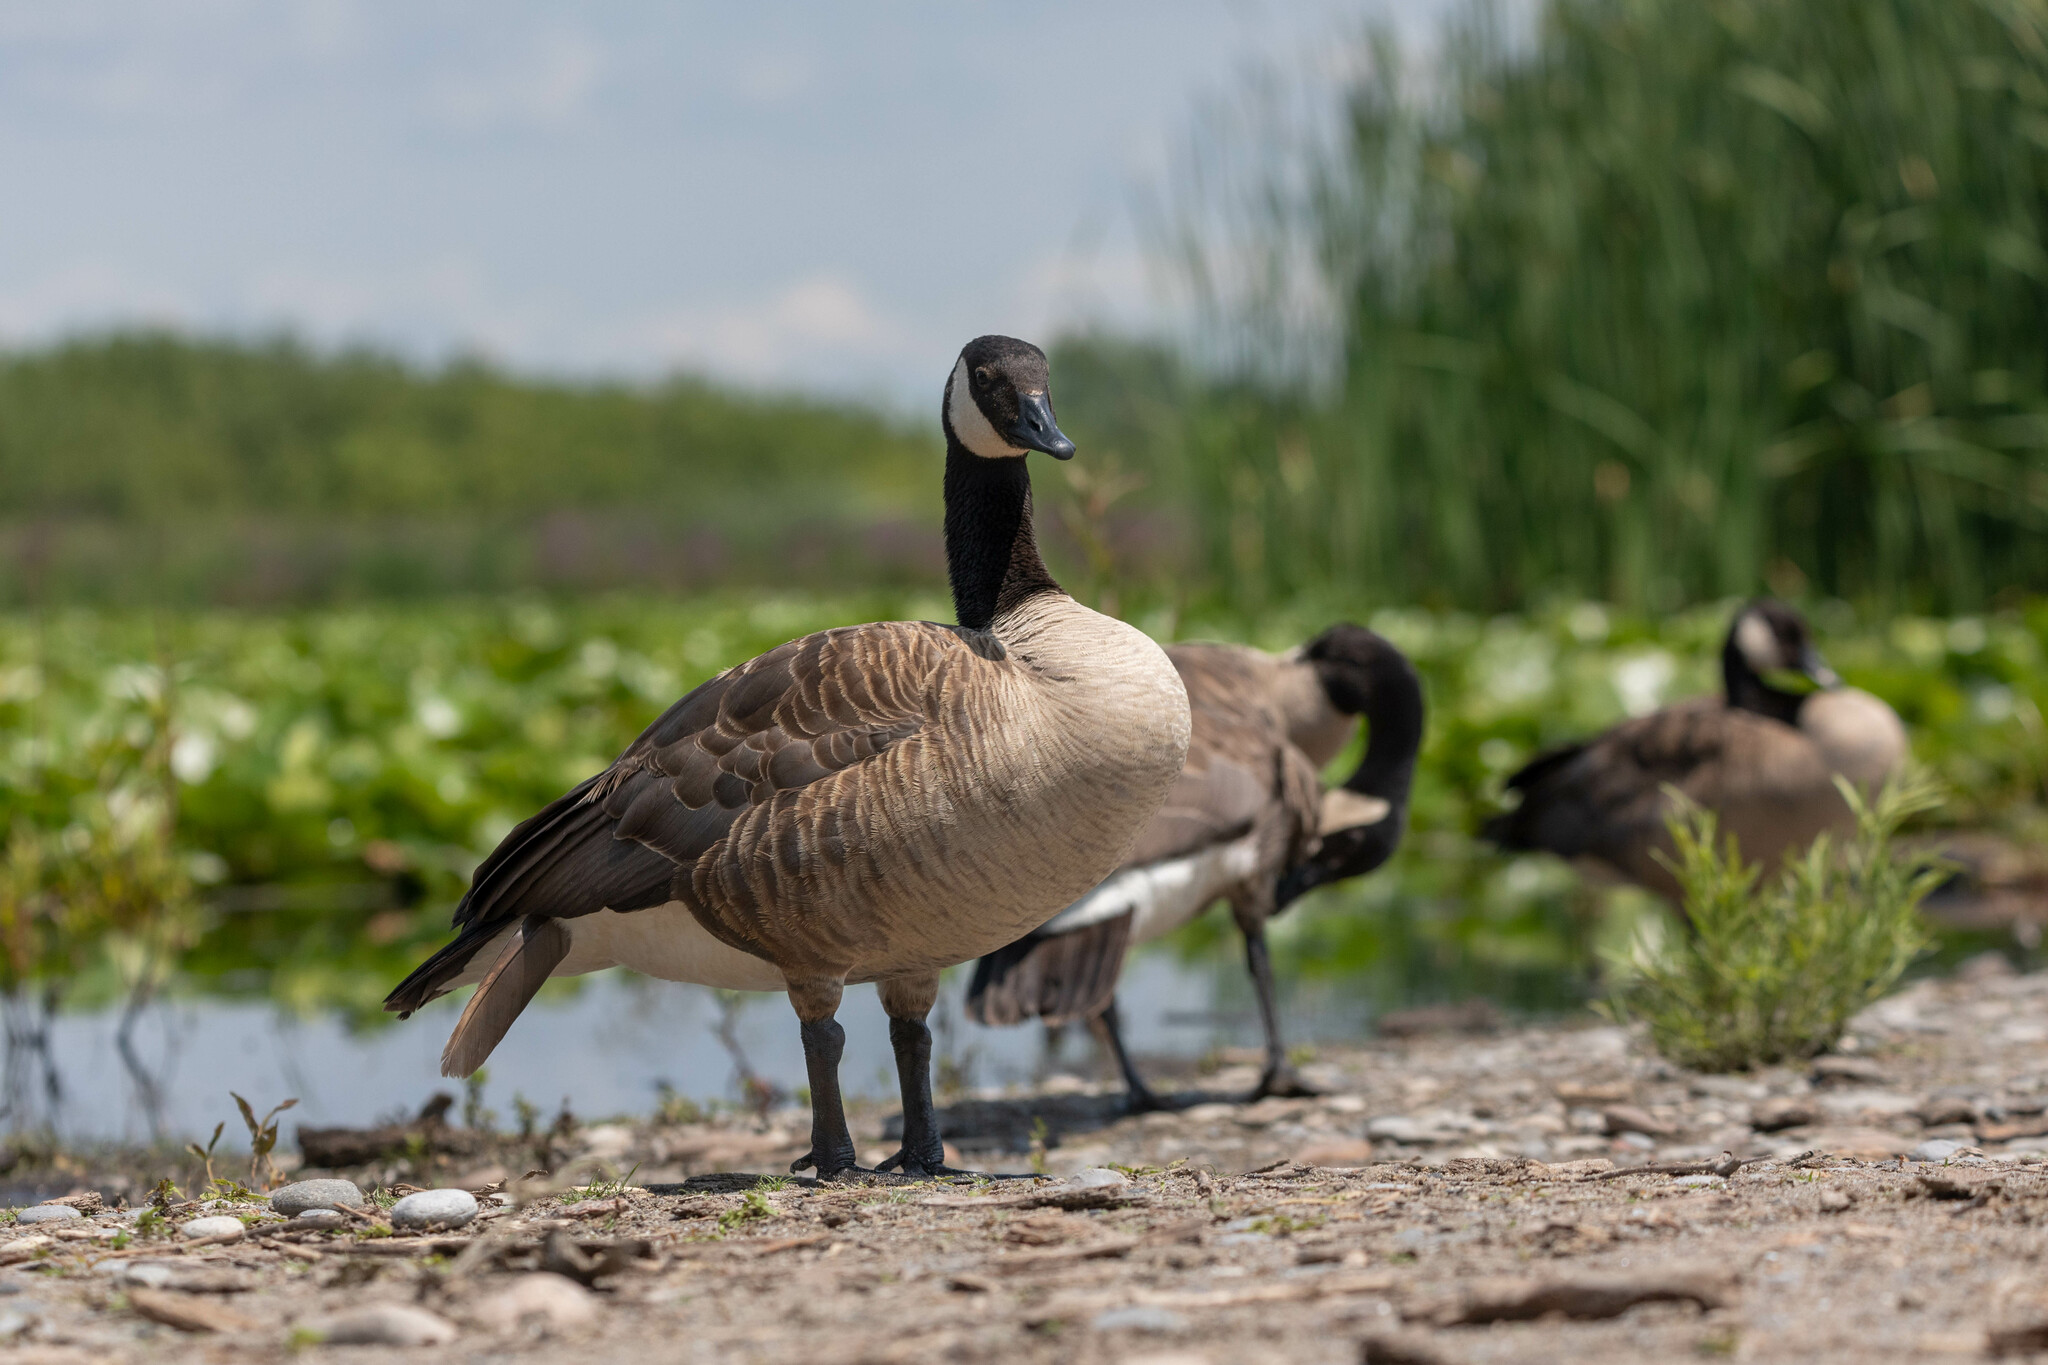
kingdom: Animalia
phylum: Chordata
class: Aves
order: Anseriformes
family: Anatidae
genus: Branta
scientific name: Branta canadensis
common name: Canada goose
